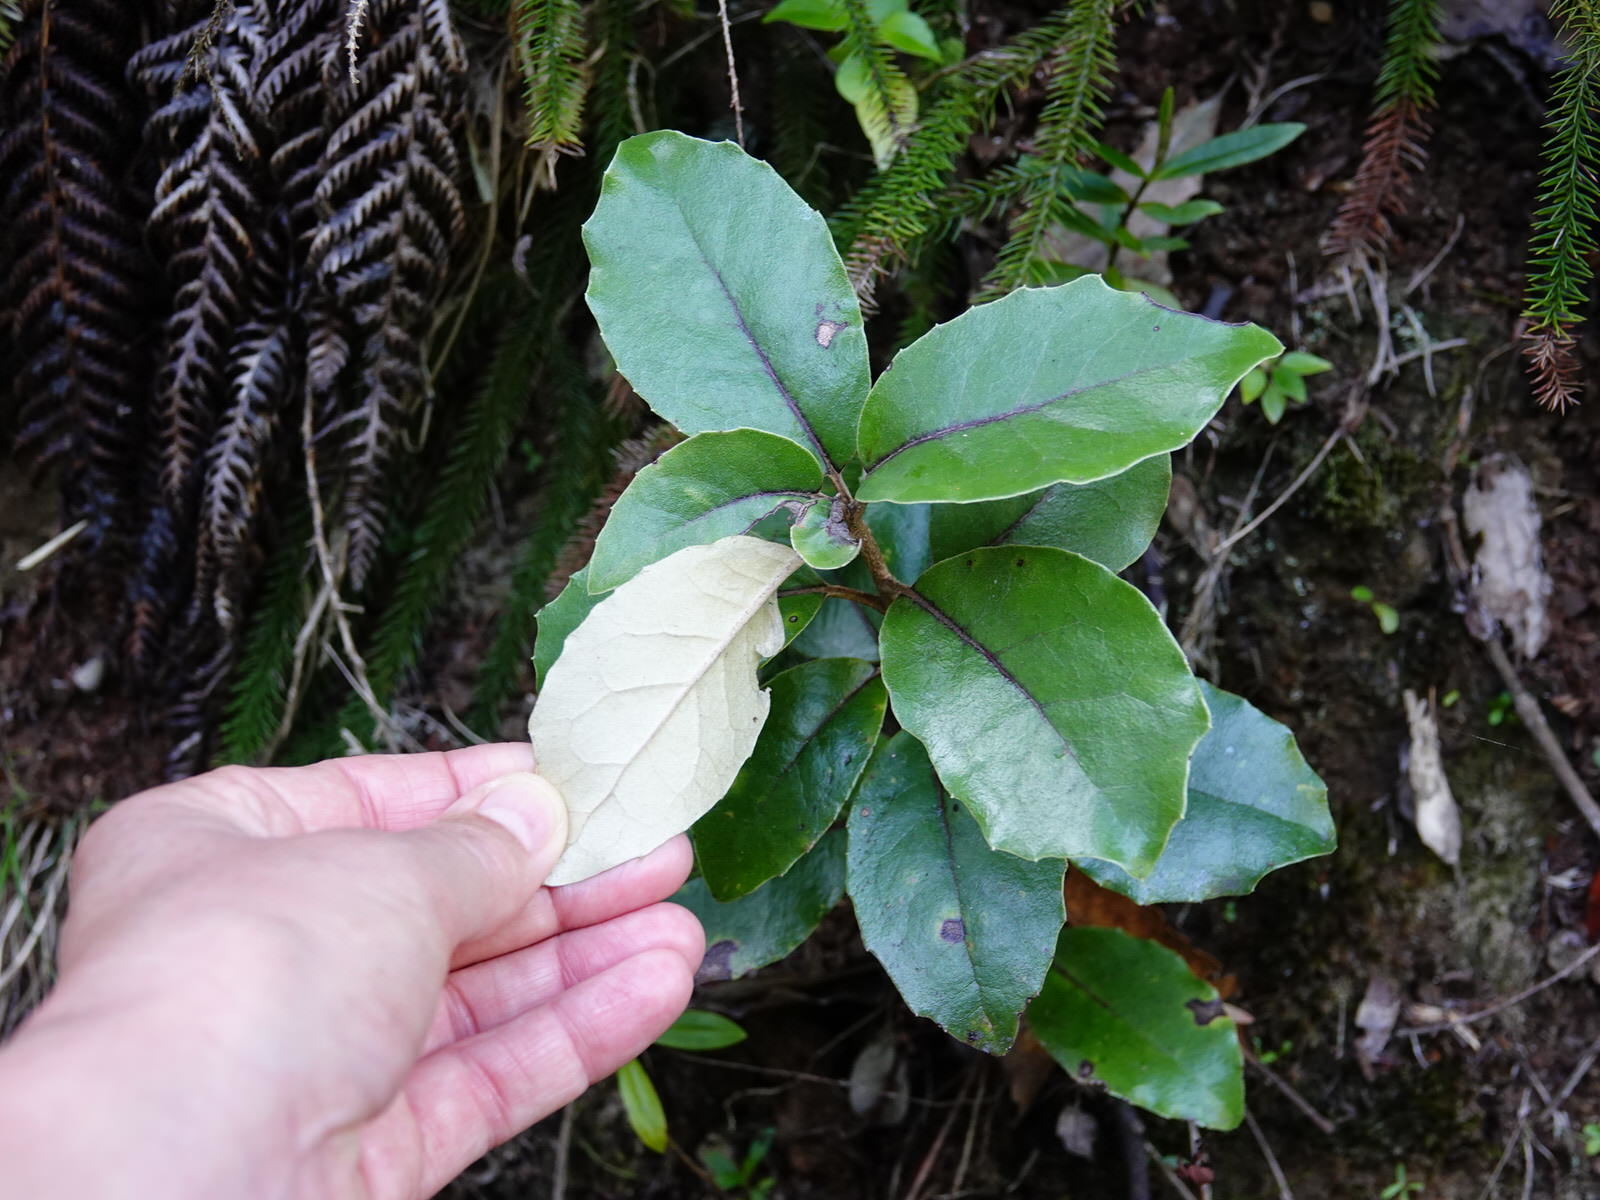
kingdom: Plantae
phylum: Tracheophyta
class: Magnoliopsida
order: Asterales
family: Asteraceae
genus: Olearia
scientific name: Olearia furfuracea
